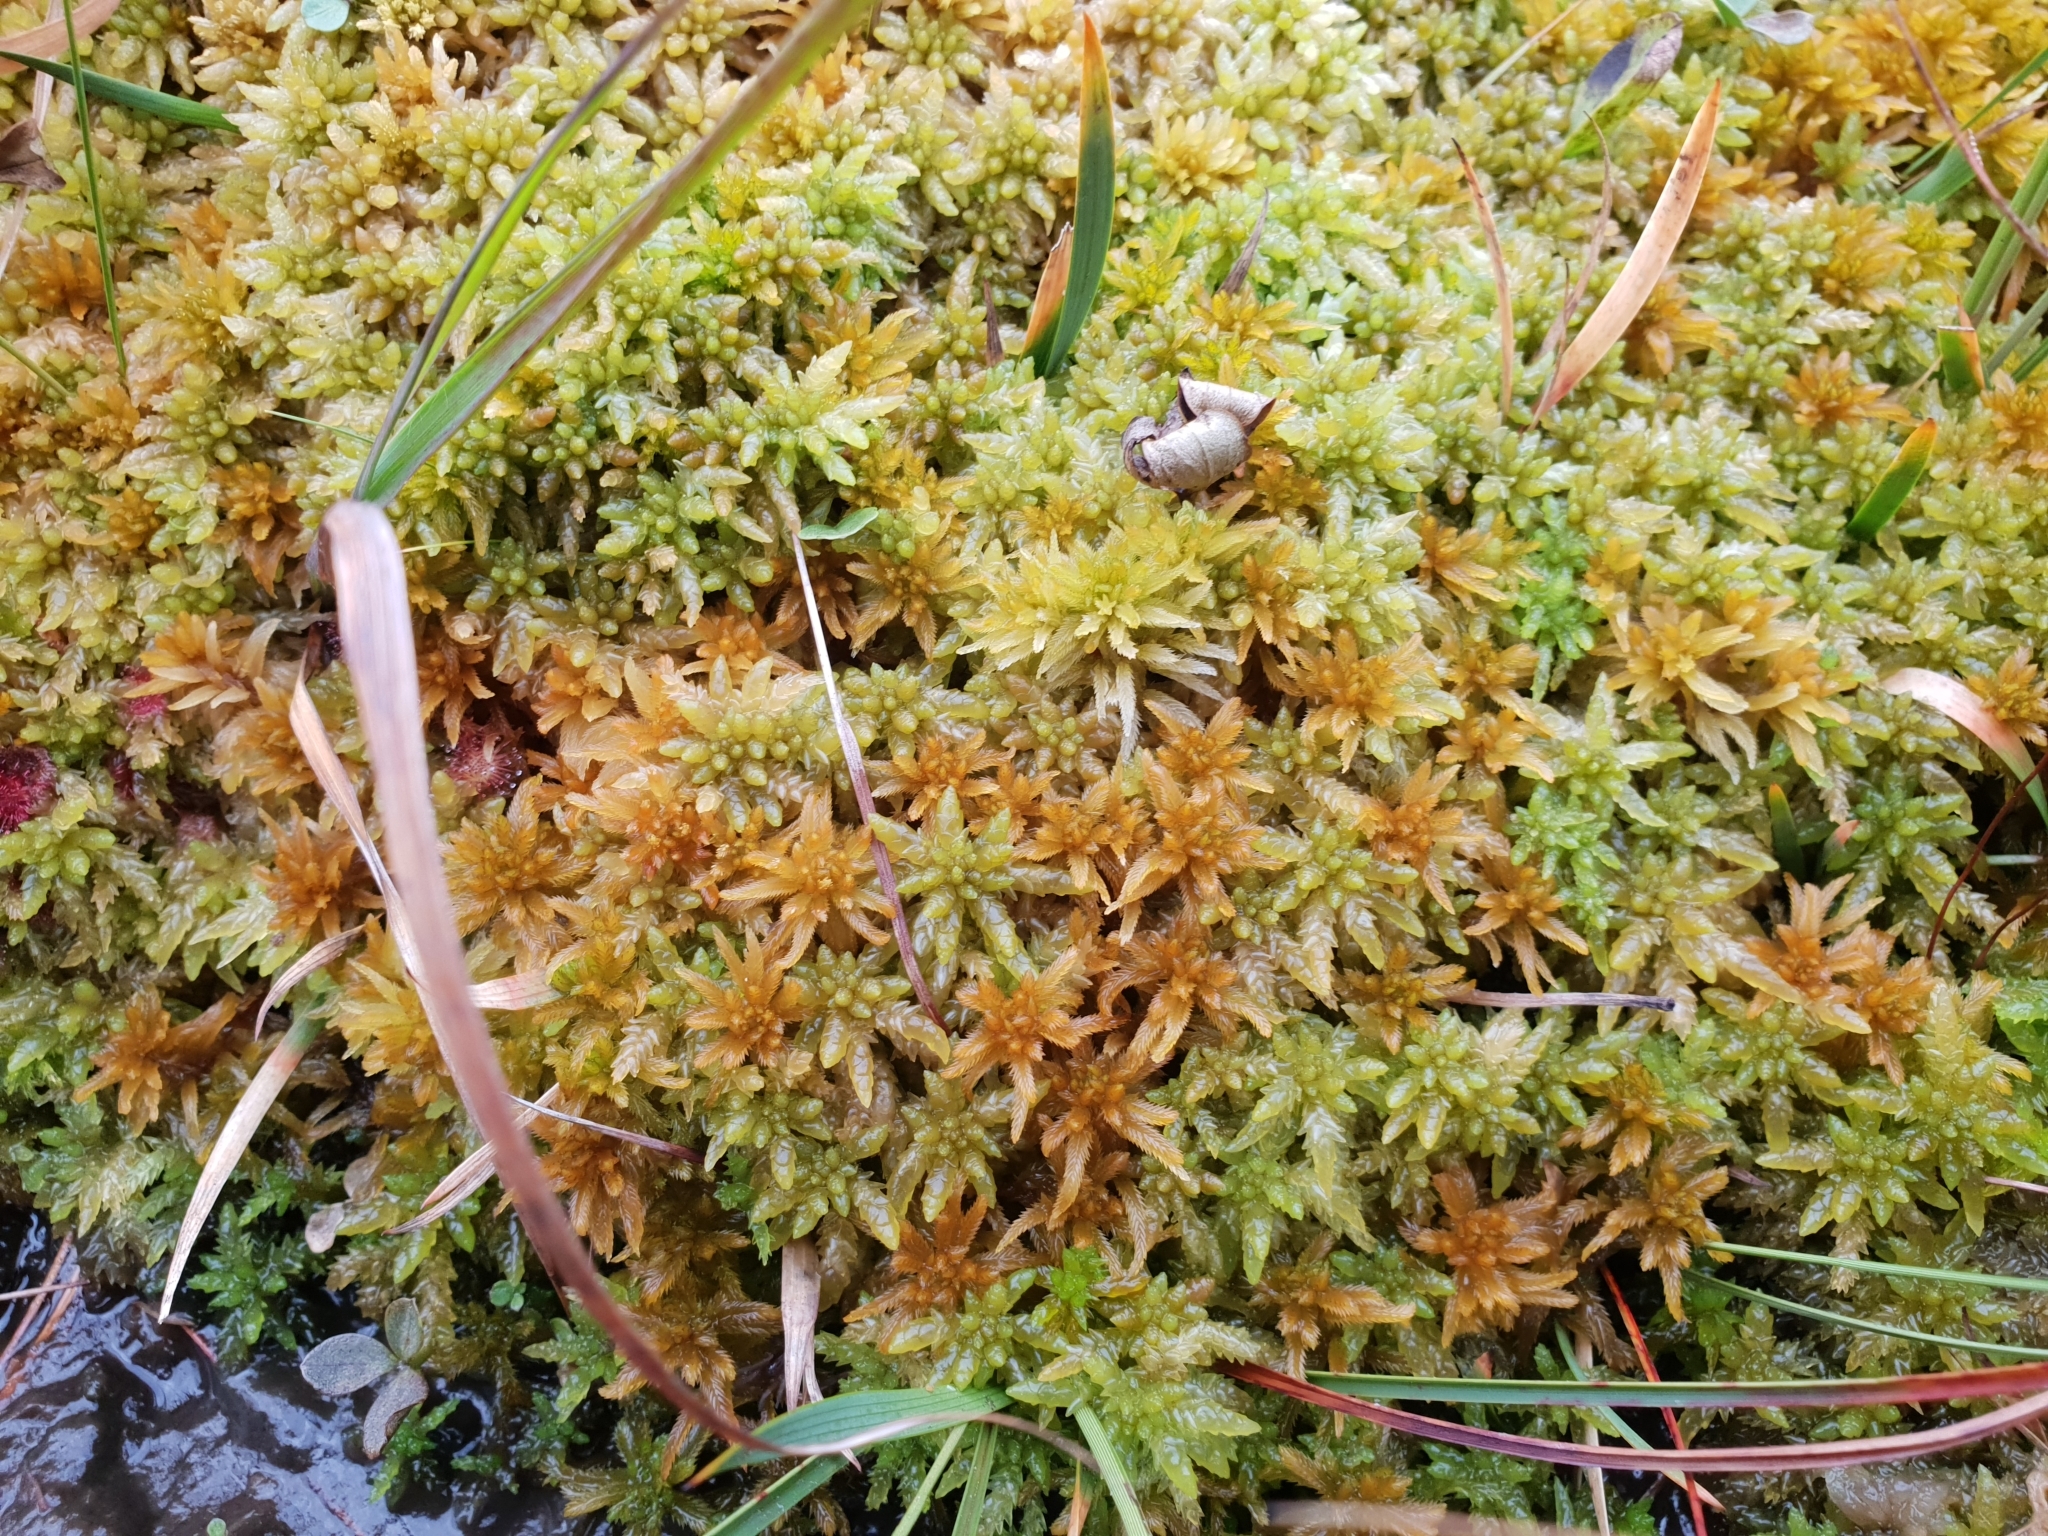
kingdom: Plantae
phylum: Bryophyta
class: Sphagnopsida
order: Sphagnales
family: Sphagnaceae
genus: Sphagnum
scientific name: Sphagnum pulchrum
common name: Beautiful peat moss
